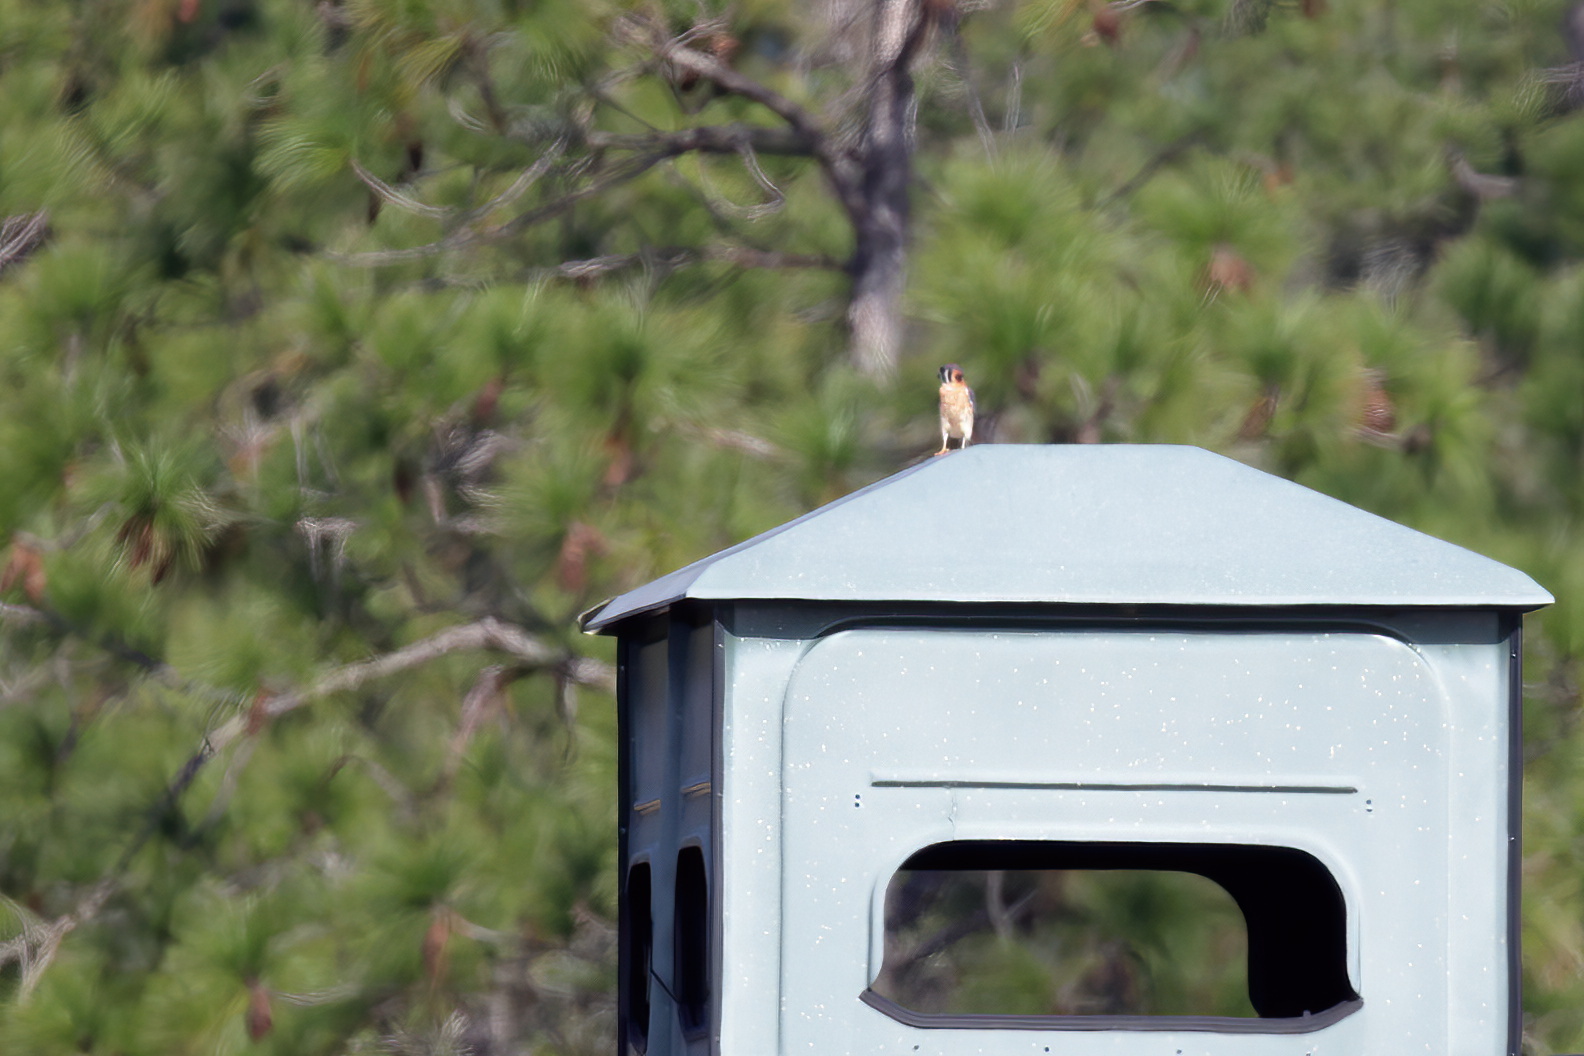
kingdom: Animalia
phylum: Chordata
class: Aves
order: Falconiformes
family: Falconidae
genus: Falco
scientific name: Falco sparverius
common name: American kestrel
